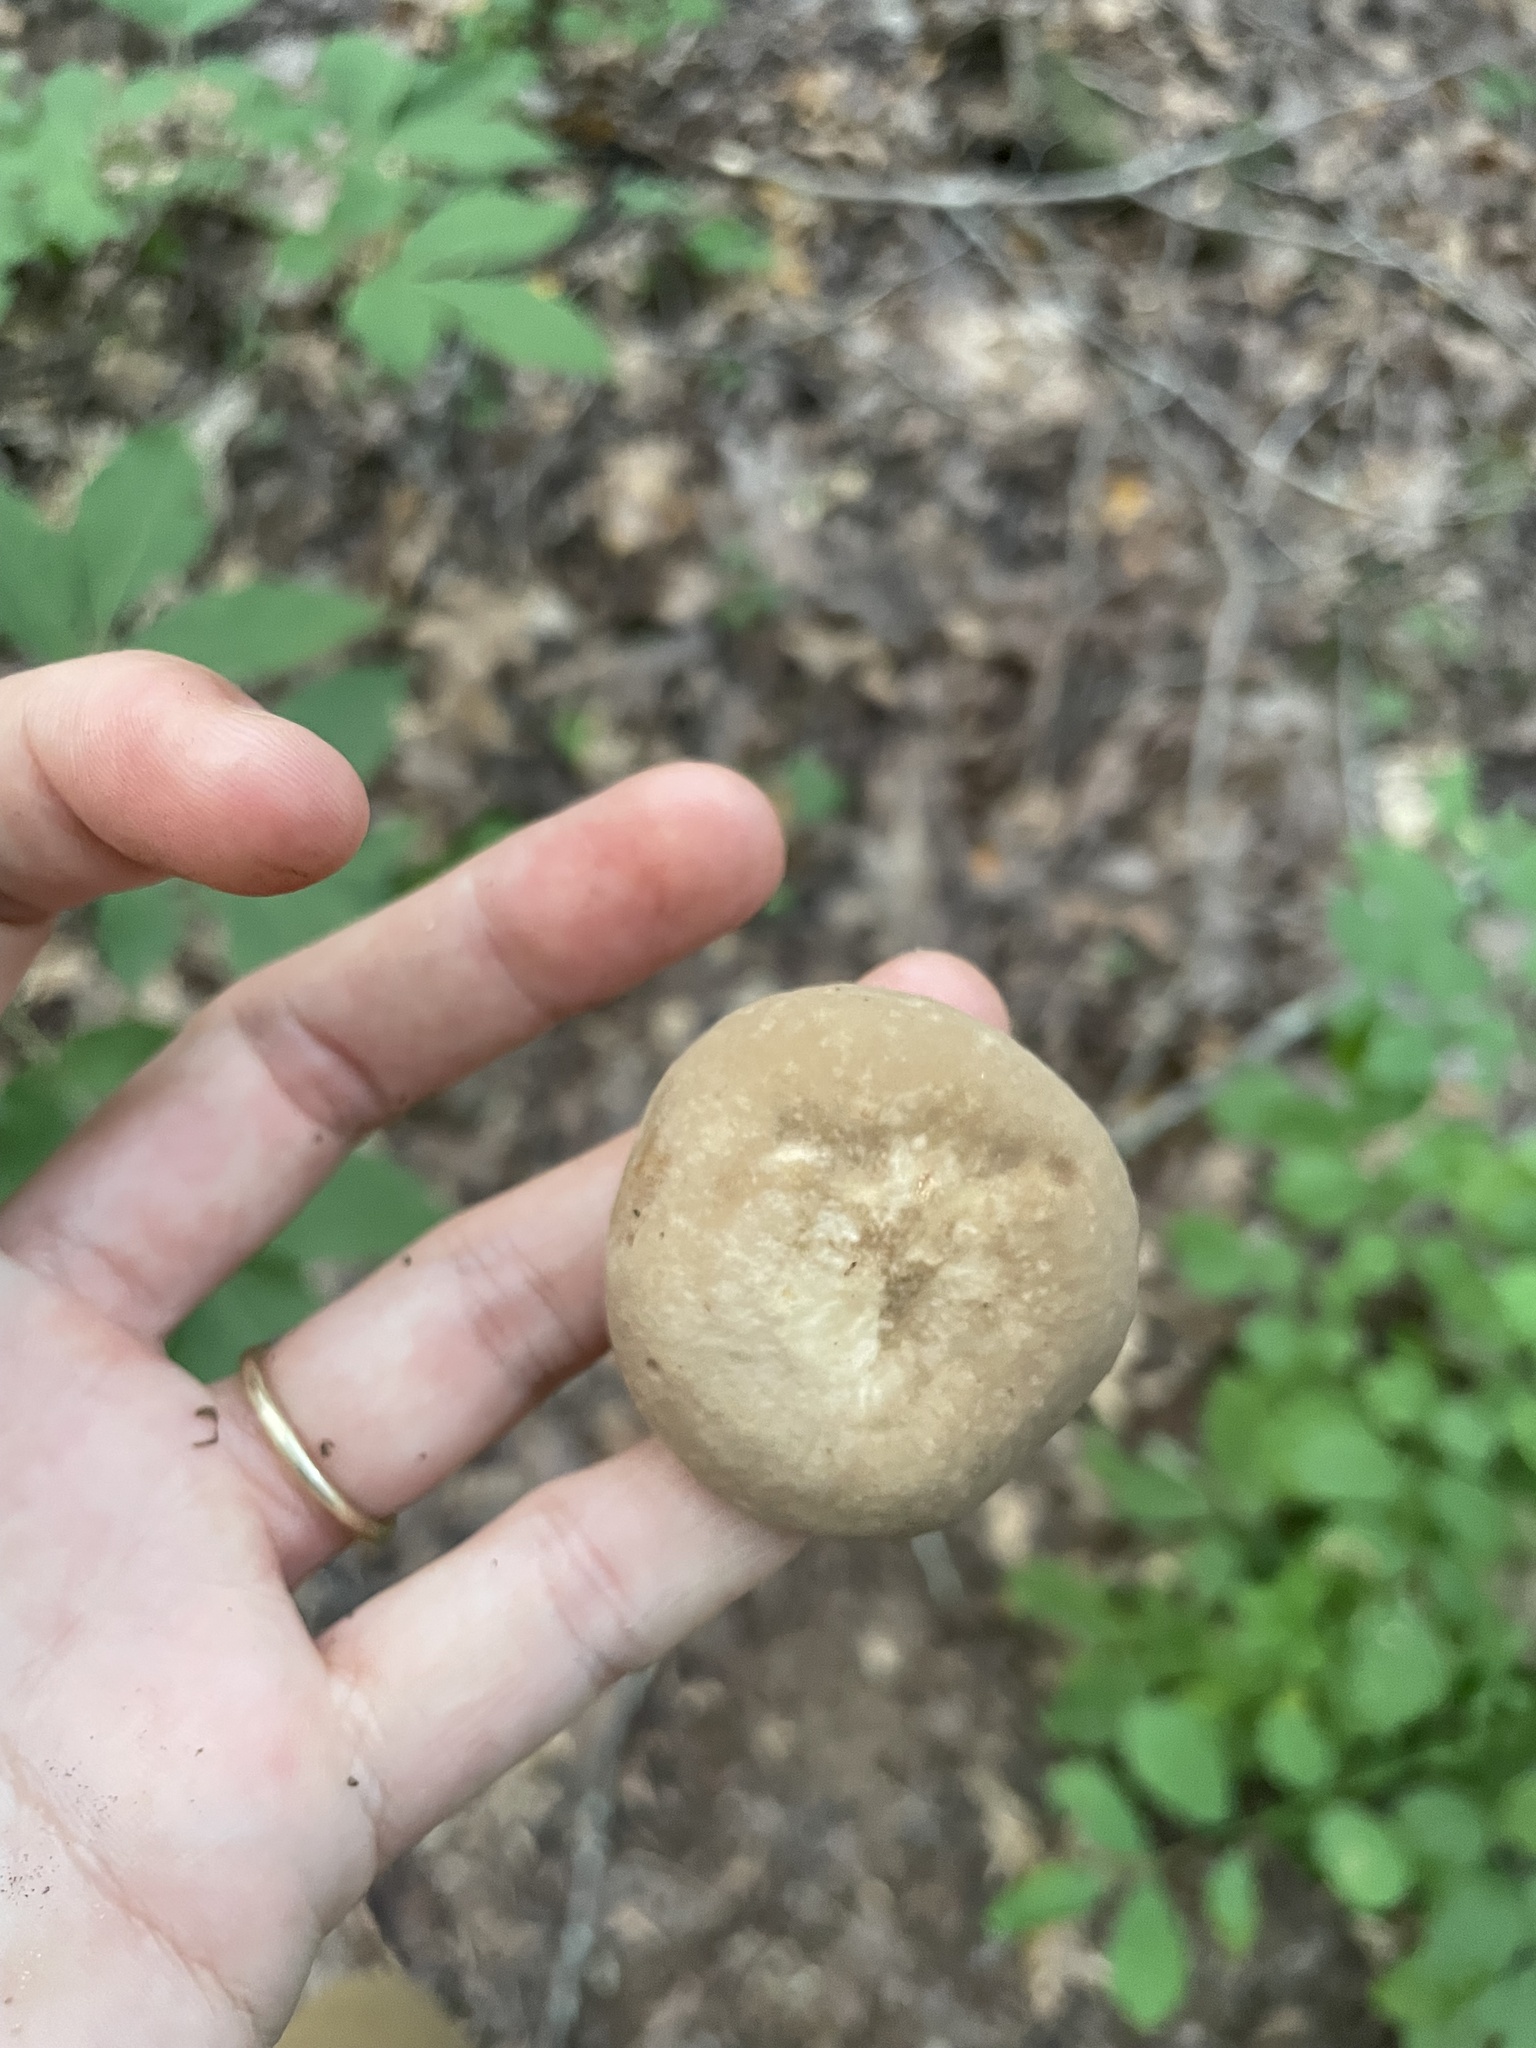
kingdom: Fungi
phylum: Basidiomycota
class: Agaricomycetes
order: Russulales
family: Russulaceae
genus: Lactarius
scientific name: Lactarius subvernalis
